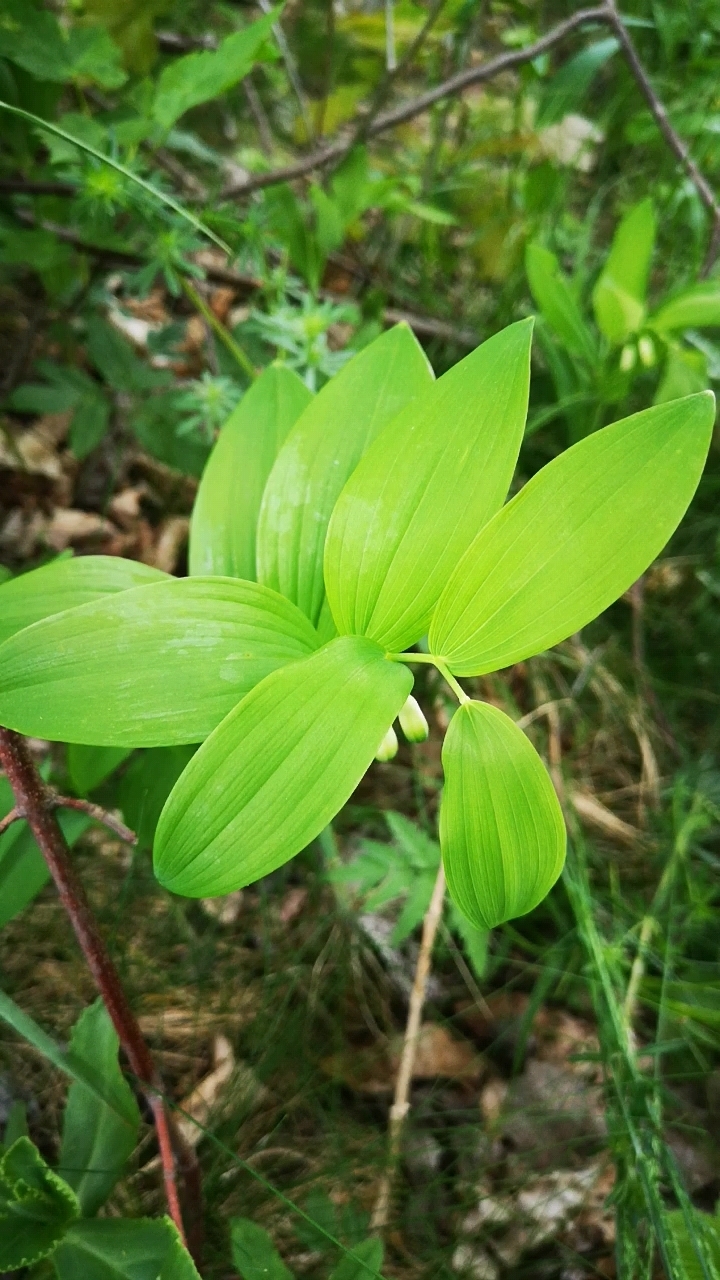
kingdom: Plantae
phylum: Tracheophyta
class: Liliopsida
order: Asparagales
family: Asparagaceae
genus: Polygonatum
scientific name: Polygonatum odoratum
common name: Angular solomon's-seal
